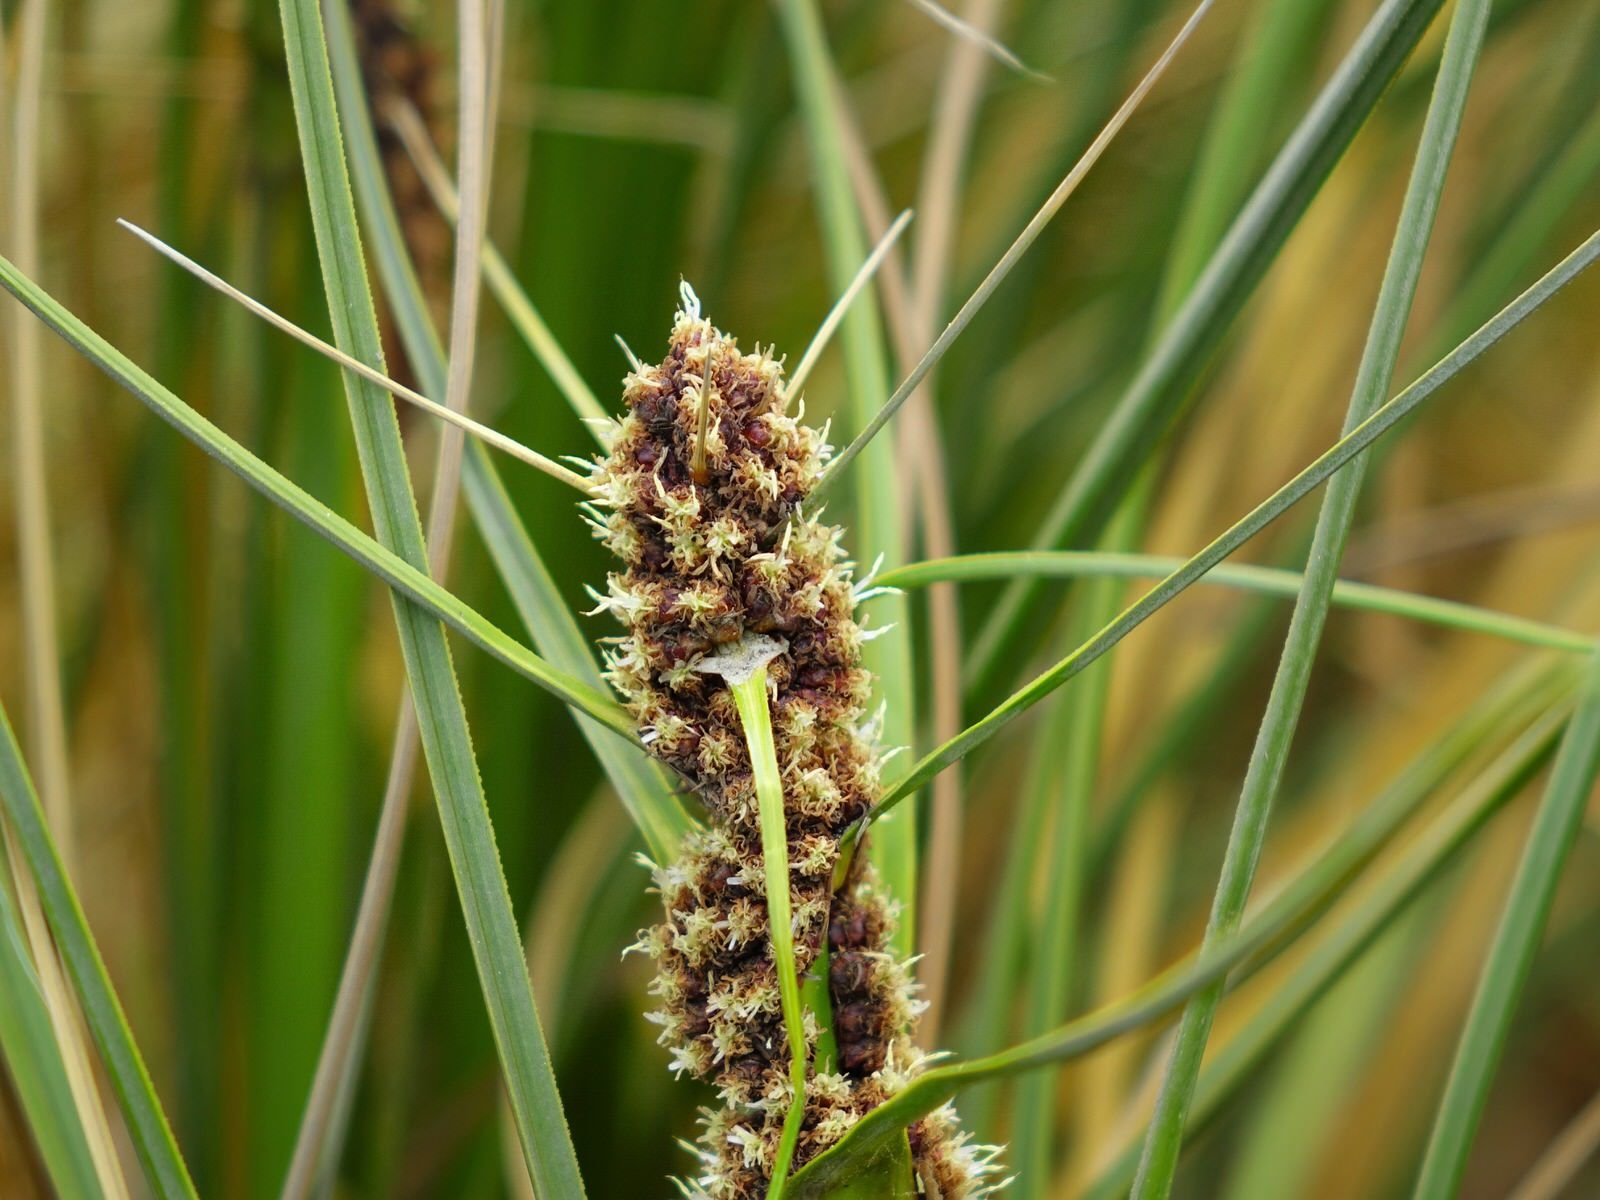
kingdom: Plantae
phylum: Tracheophyta
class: Liliopsida
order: Poales
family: Cyperaceae
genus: Ficinia
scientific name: Ficinia spiralis
